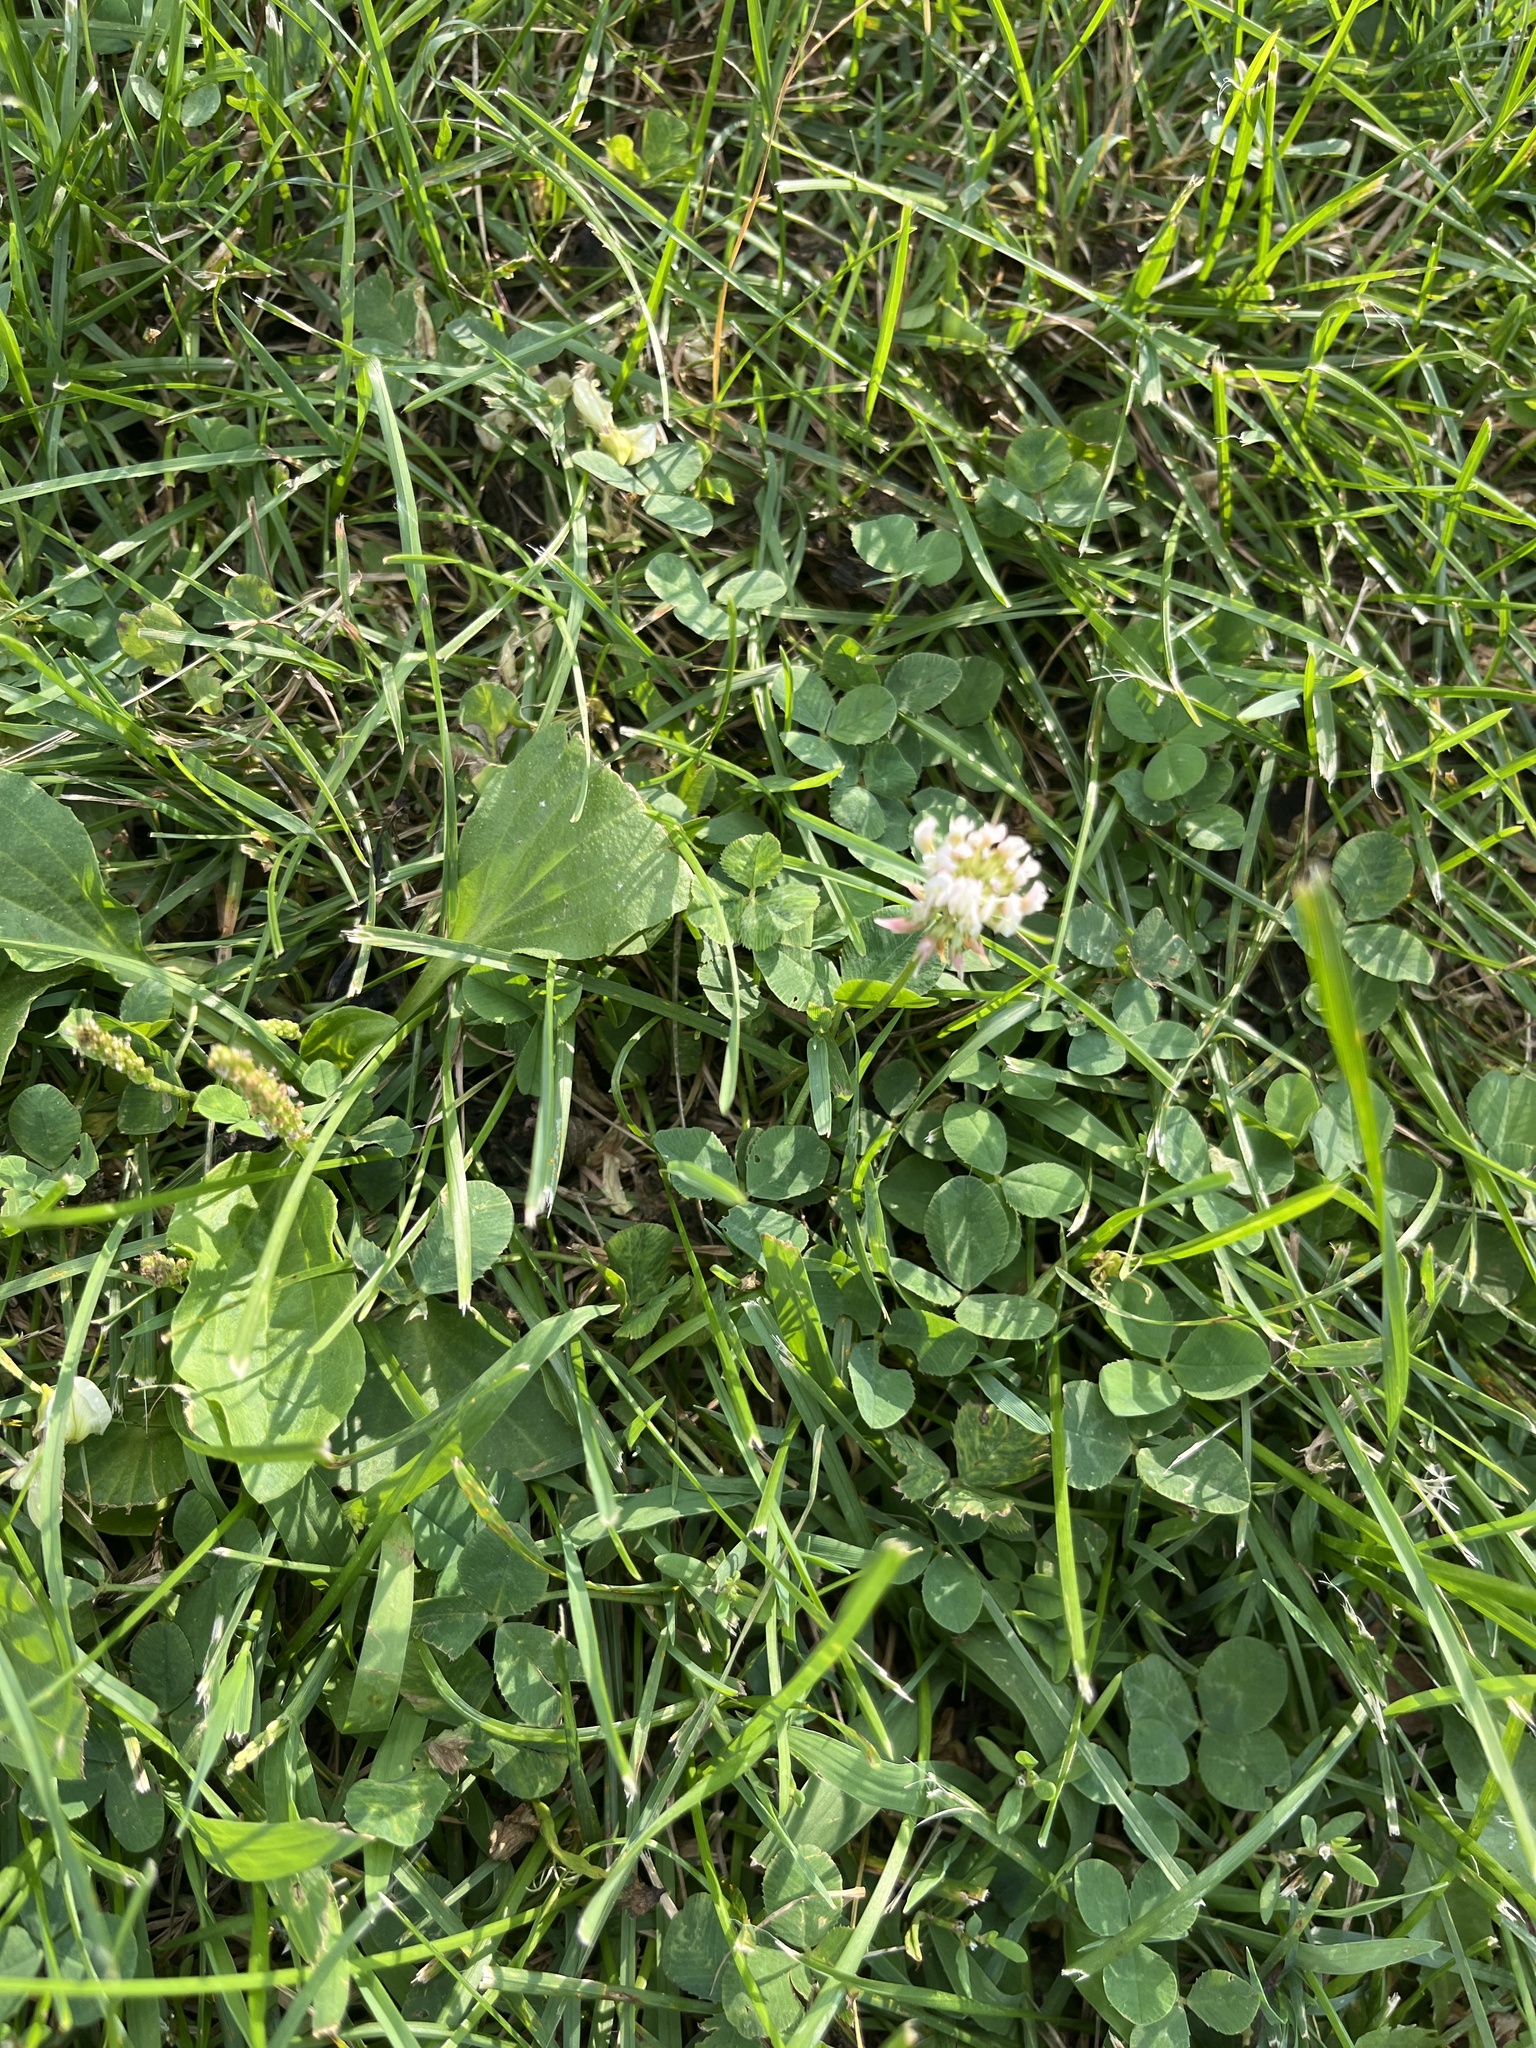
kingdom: Plantae
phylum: Tracheophyta
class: Magnoliopsida
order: Fabales
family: Fabaceae
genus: Trifolium
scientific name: Trifolium repens
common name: White clover
